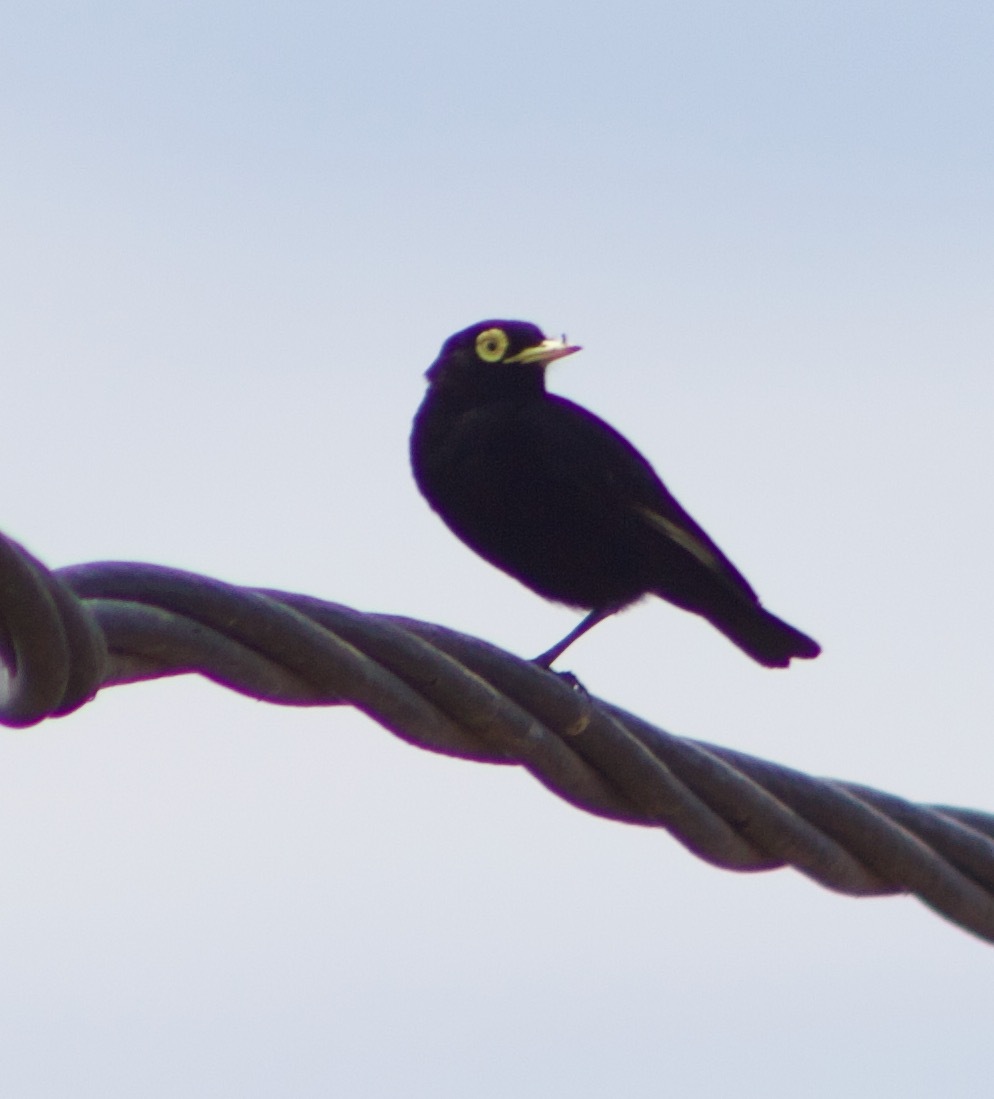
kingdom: Animalia
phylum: Chordata
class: Aves
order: Passeriformes
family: Tyrannidae
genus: Hymenops
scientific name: Hymenops perspicillatus
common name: Spectacled tyrant
